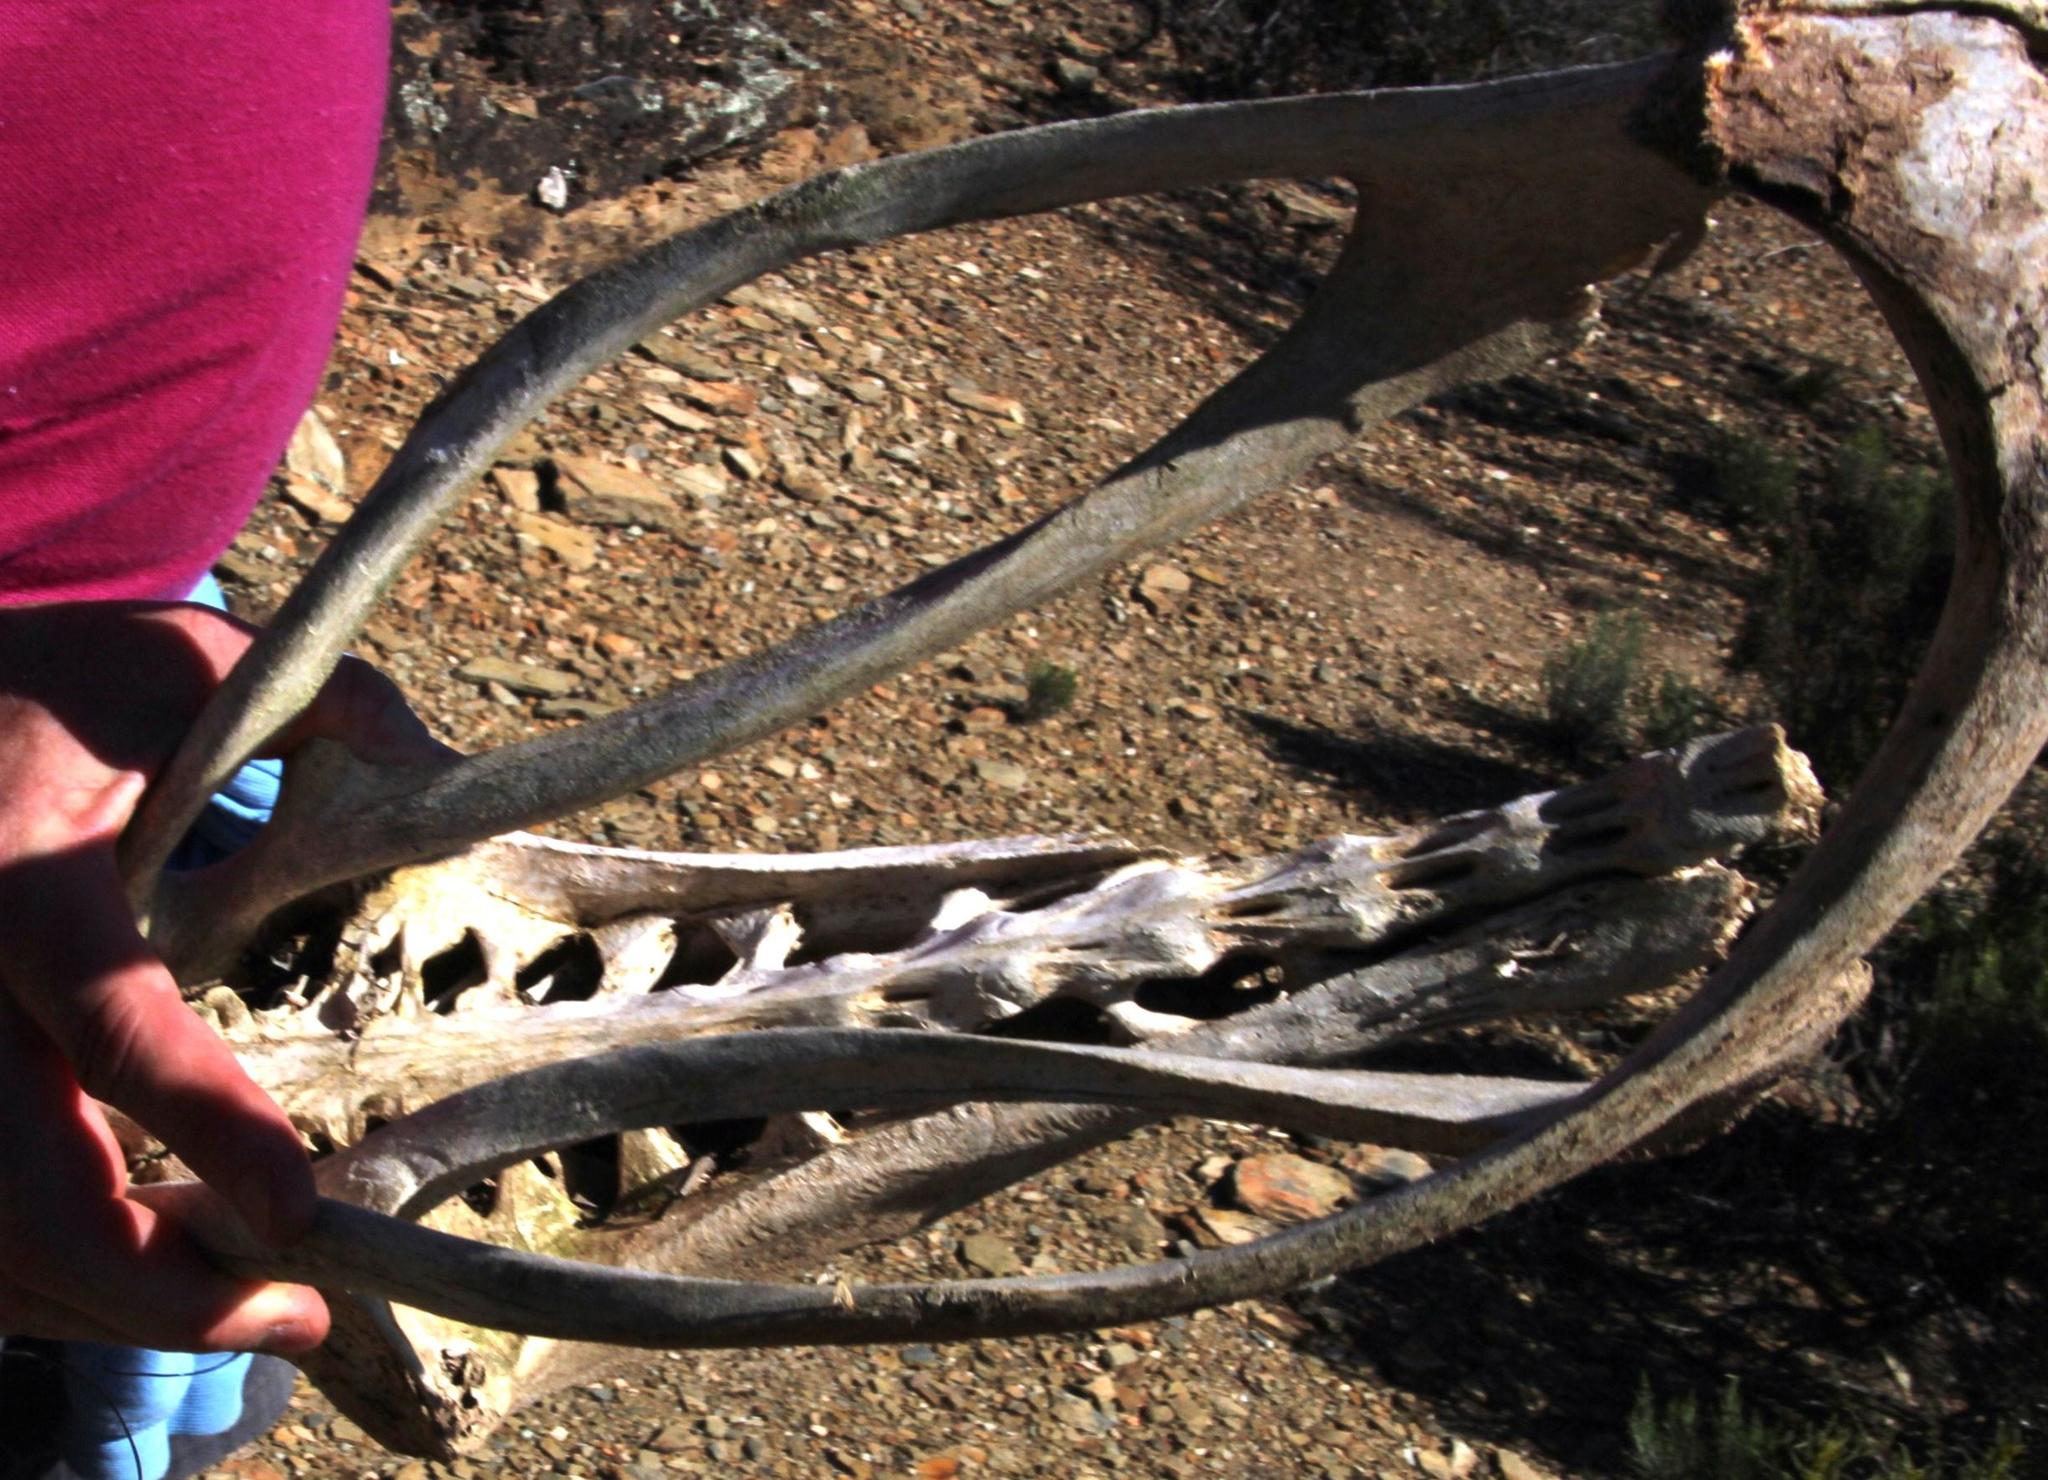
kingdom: Animalia
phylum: Chordata
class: Aves
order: Struthioniformes
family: Struthionidae
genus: Struthio
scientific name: Struthio camelus
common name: Common ostrich
